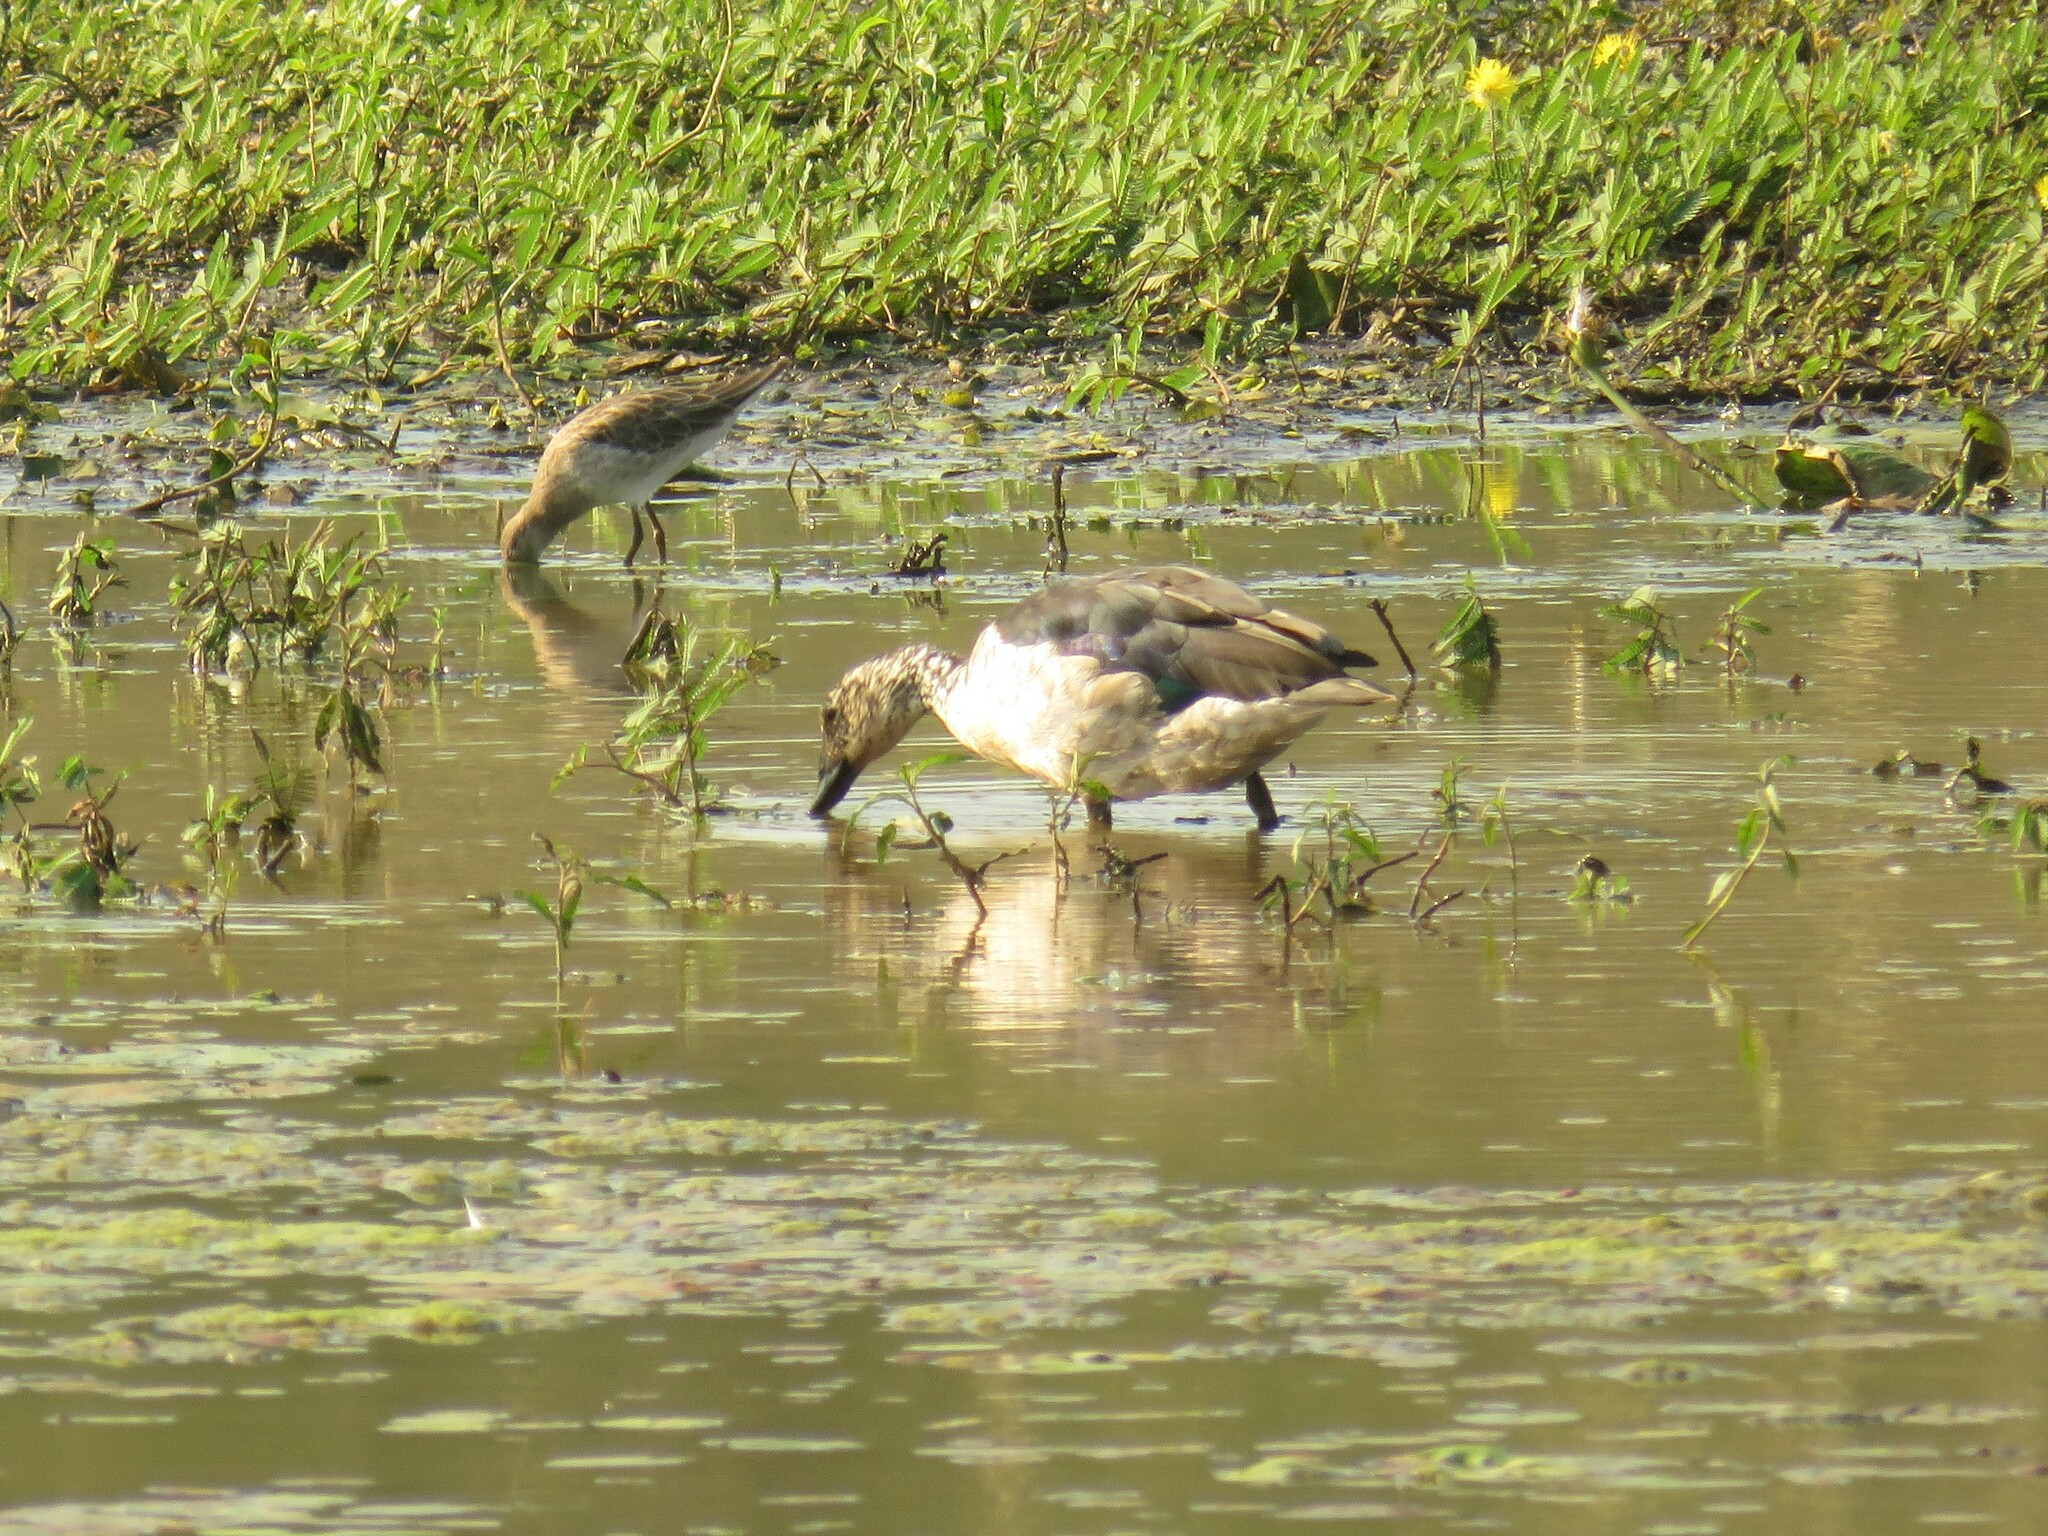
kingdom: Animalia
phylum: Chordata
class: Aves
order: Anseriformes
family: Anatidae
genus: Sarkidiornis
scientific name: Sarkidiornis melanotos
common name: Comb duck
